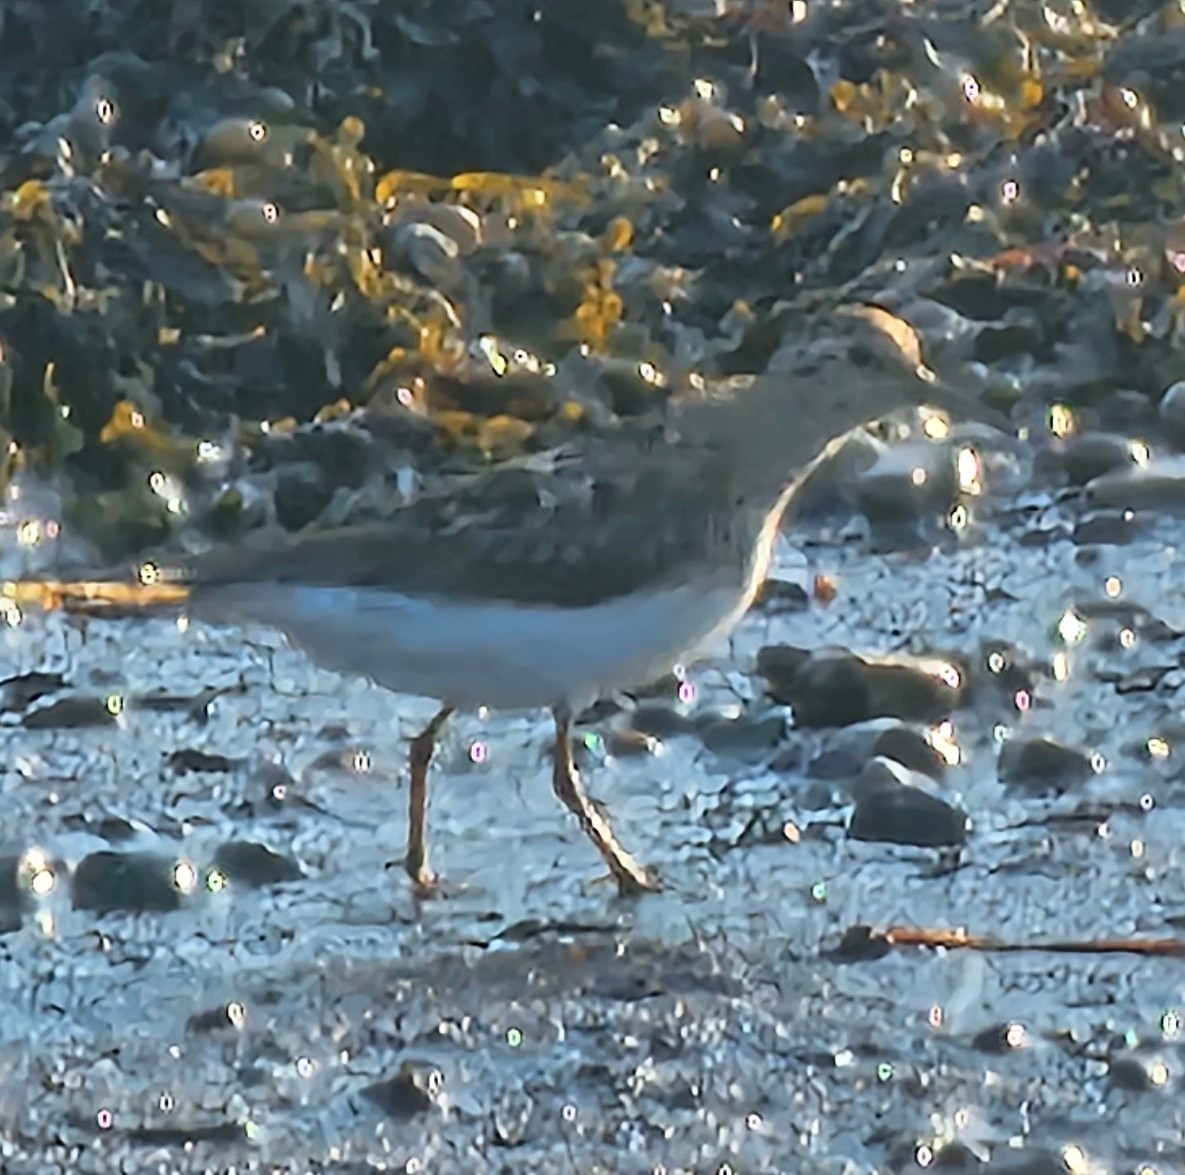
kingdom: Animalia
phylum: Chordata
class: Aves
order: Charadriiformes
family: Scolopacidae
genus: Calidris
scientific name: Calidris minutilla
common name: Least sandpiper
